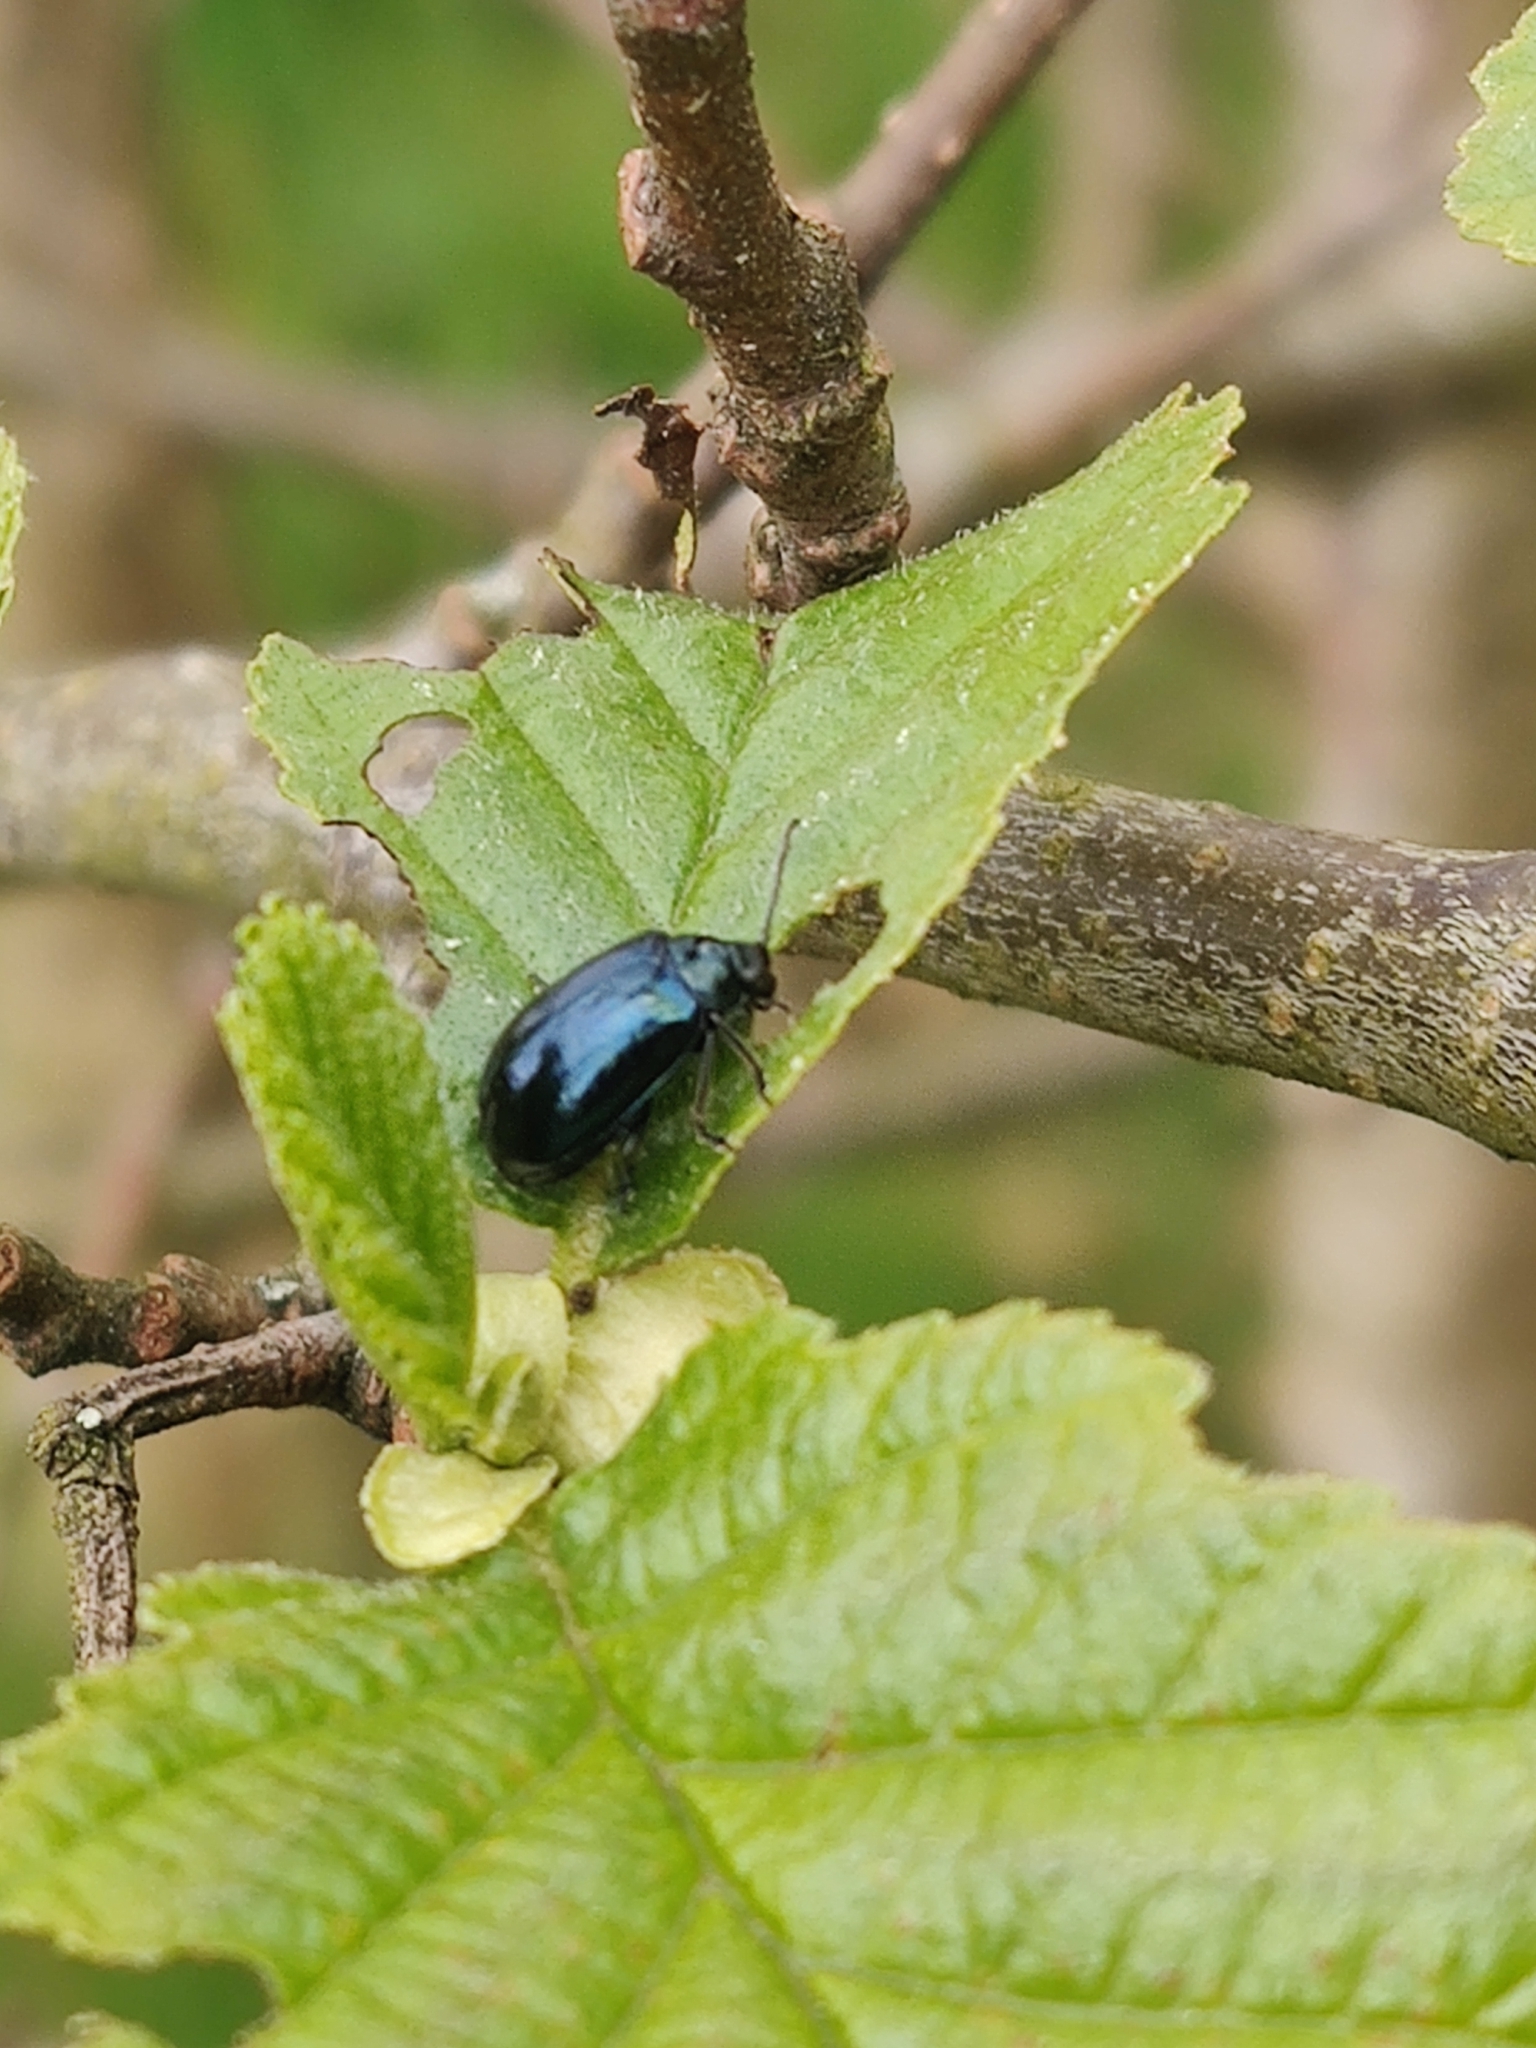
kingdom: Animalia
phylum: Arthropoda
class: Insecta
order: Coleoptera
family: Chrysomelidae
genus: Agelastica
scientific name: Agelastica alni
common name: Alder leaf beetle
